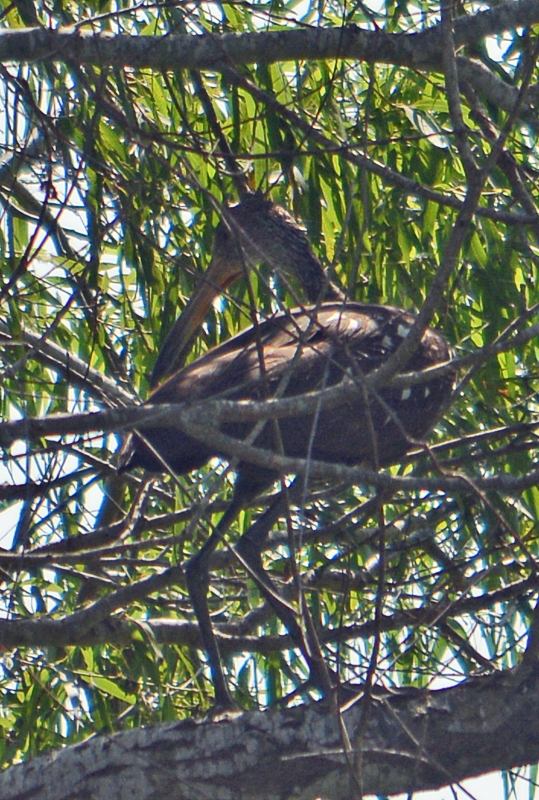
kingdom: Animalia
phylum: Chordata
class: Aves
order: Gruiformes
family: Aramidae
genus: Aramus
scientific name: Aramus guarauna
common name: Limpkin
